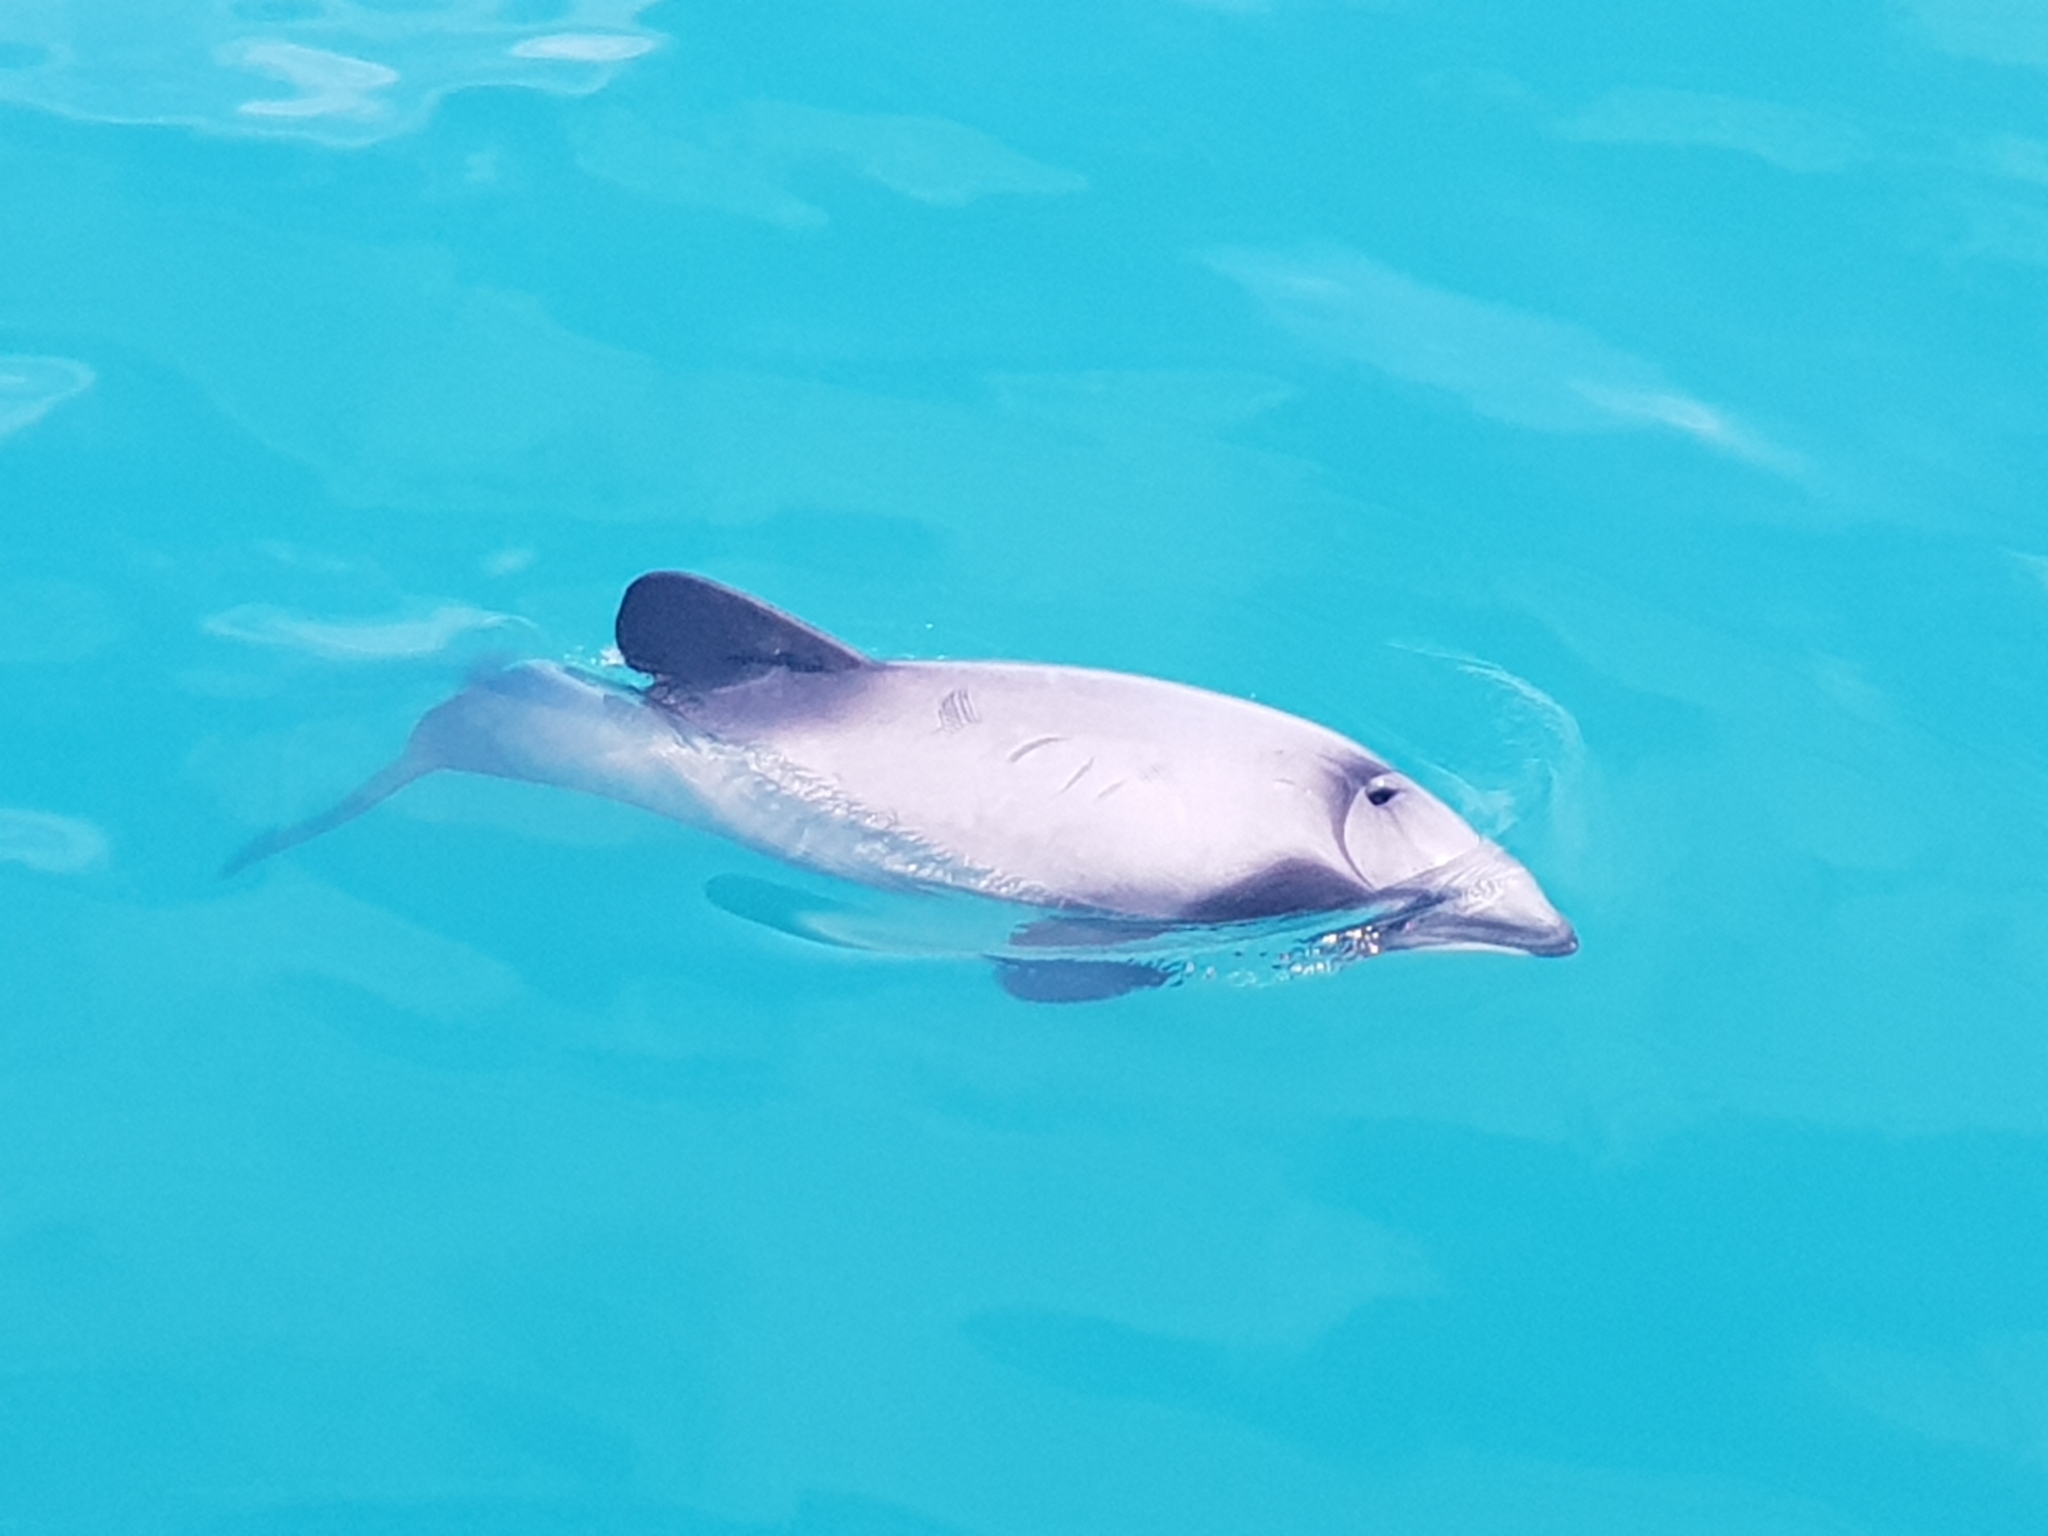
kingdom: Animalia
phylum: Chordata
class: Mammalia
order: Cetacea
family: Delphinidae
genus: Cephalorhynchus
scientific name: Cephalorhynchus hectori
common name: Hector's dolphin
